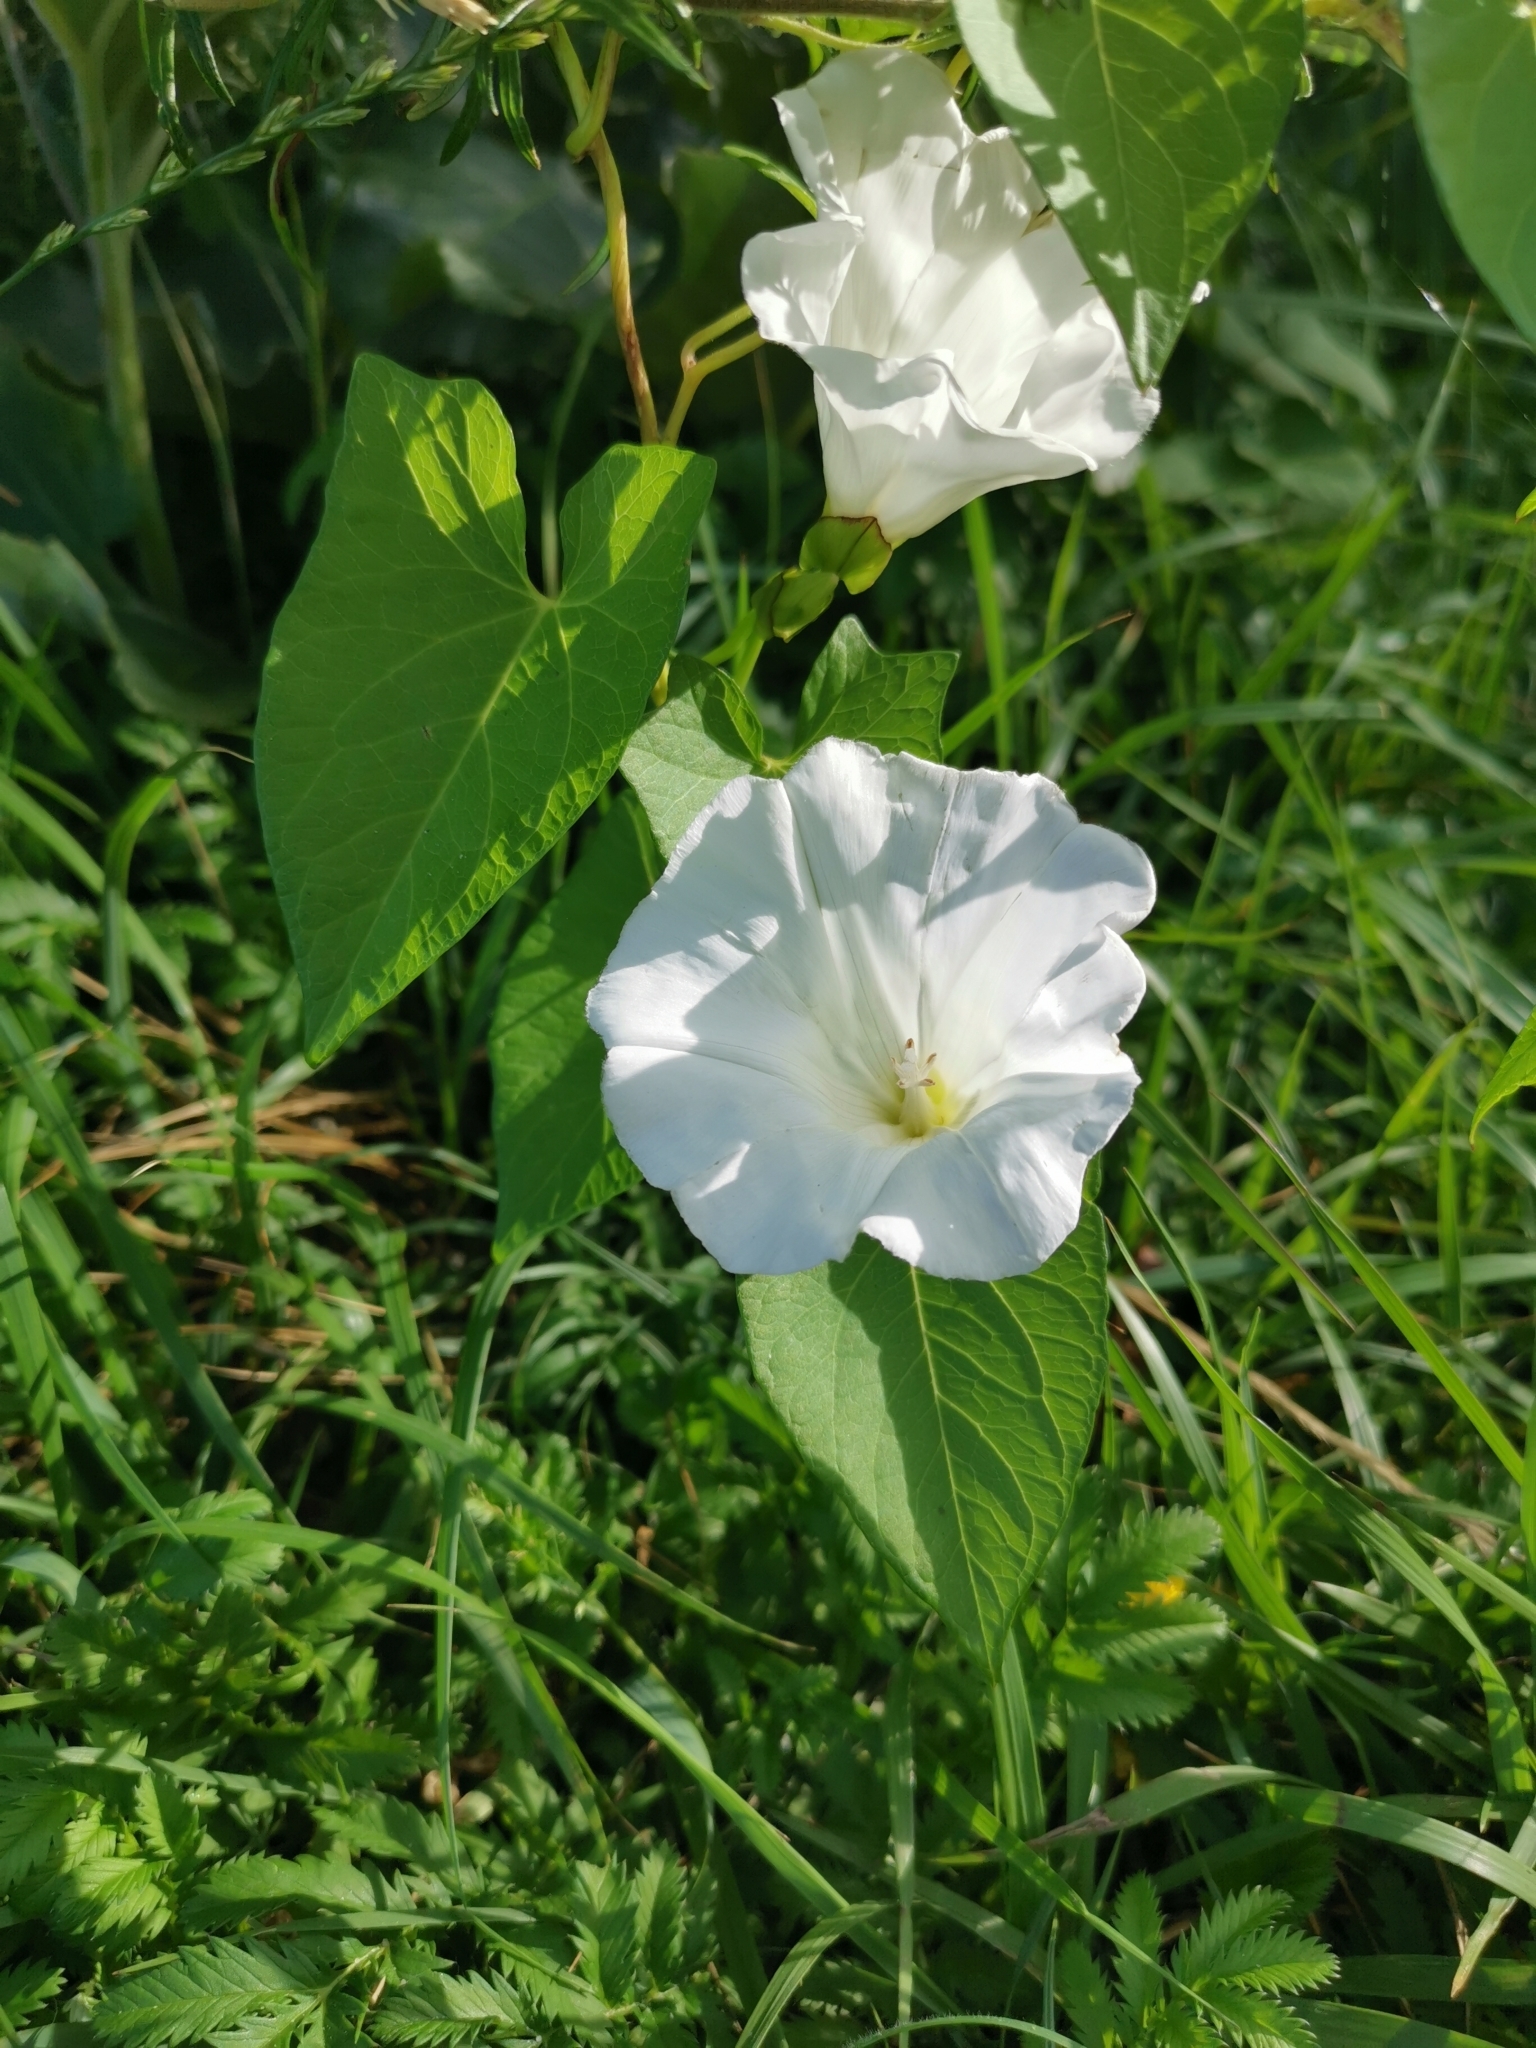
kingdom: Plantae
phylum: Tracheophyta
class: Magnoliopsida
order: Solanales
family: Convolvulaceae
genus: Calystegia
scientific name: Calystegia sepium
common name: Hedge bindweed
